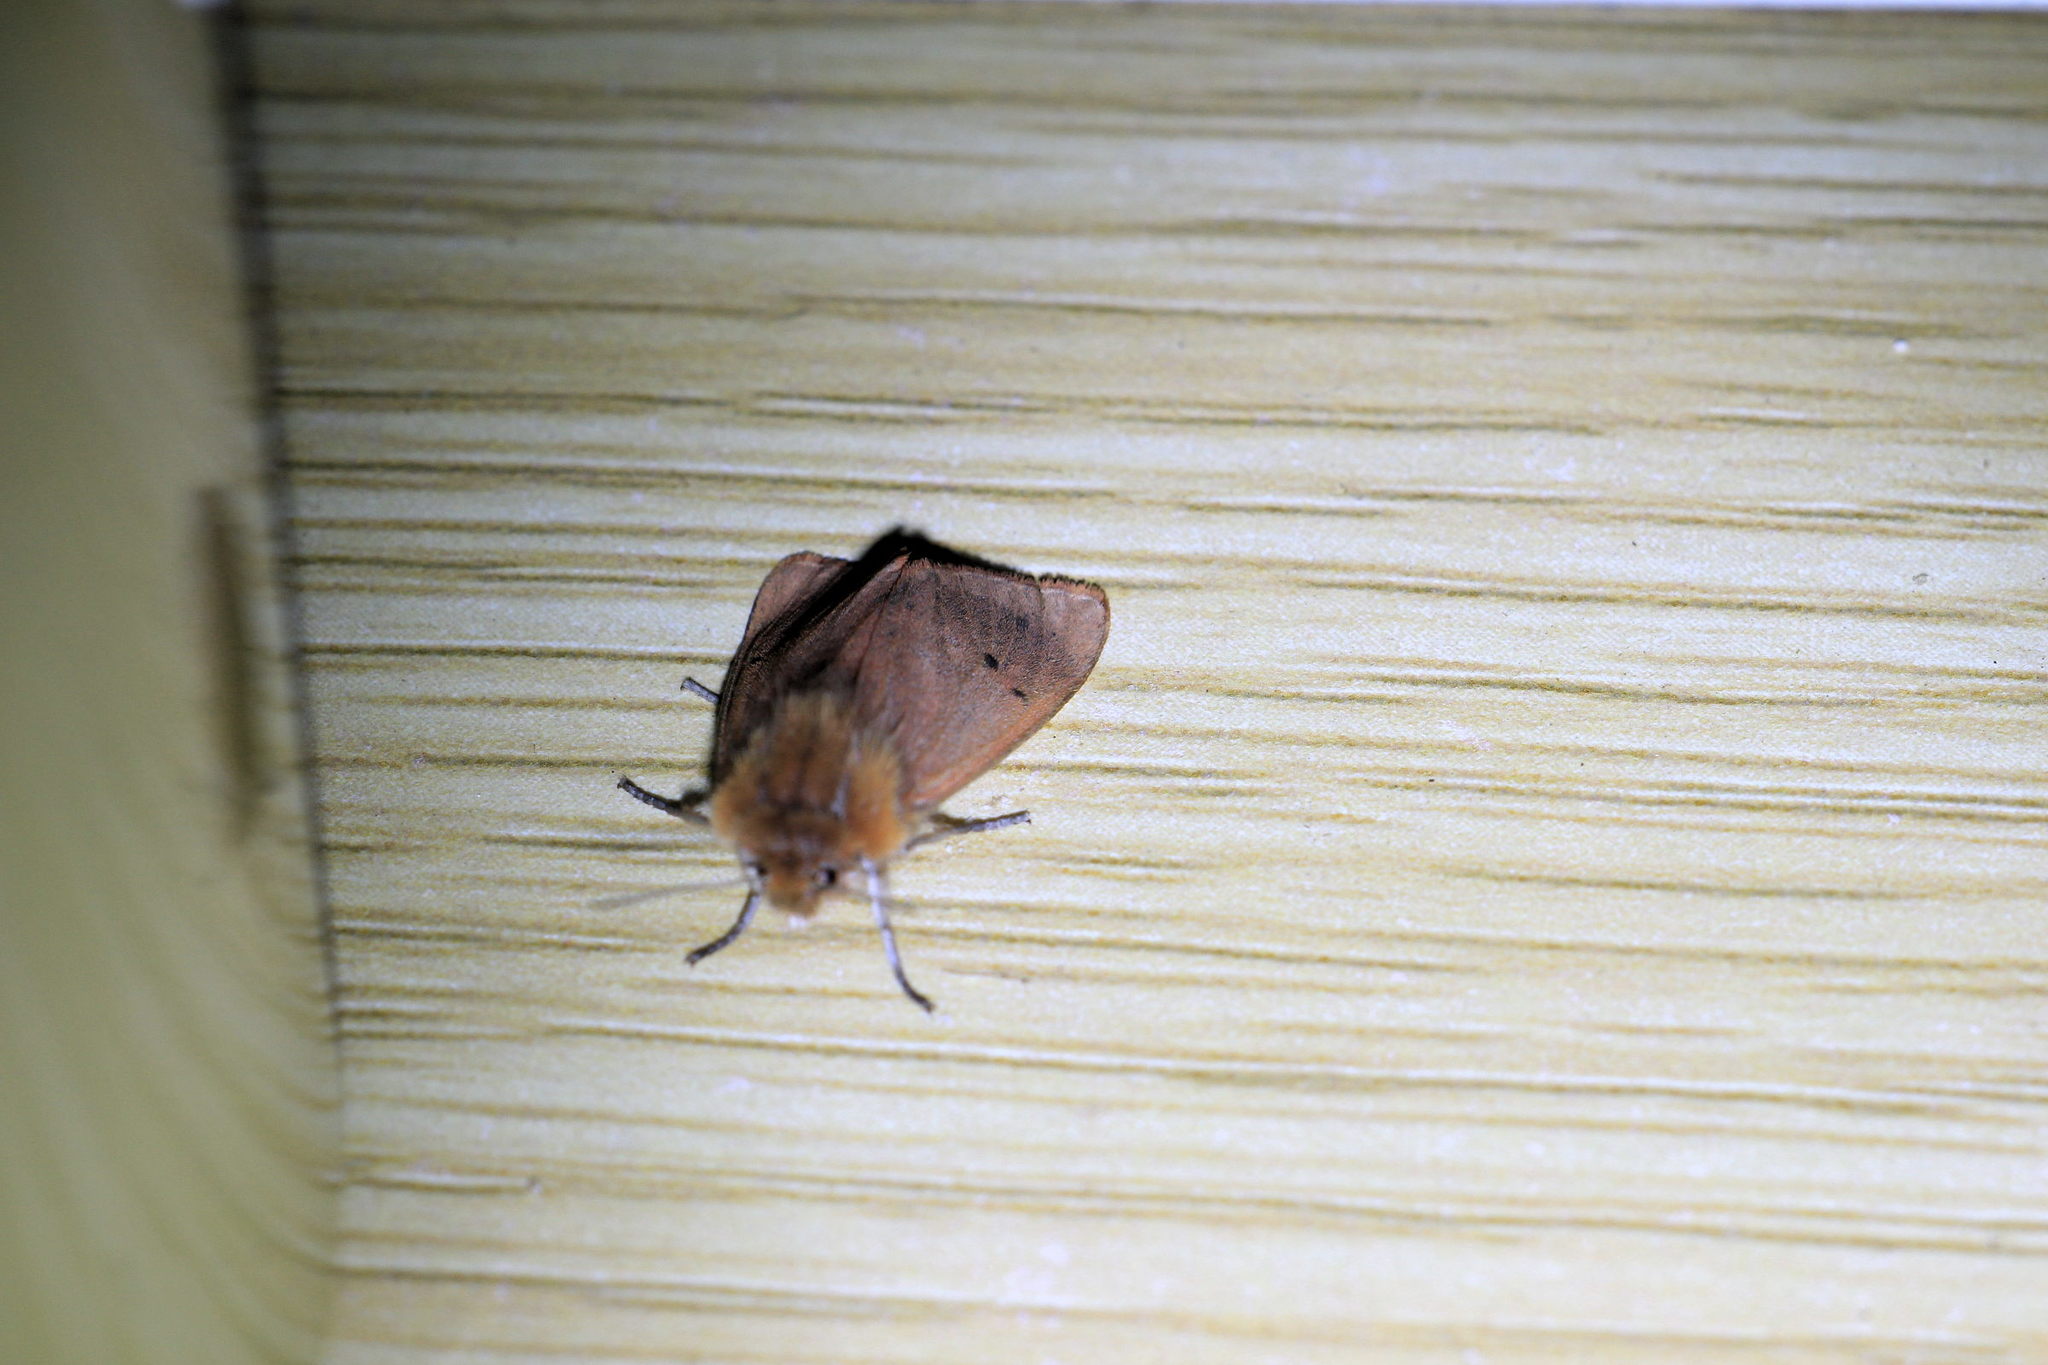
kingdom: Animalia
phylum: Arthropoda
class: Insecta
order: Lepidoptera
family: Erebidae
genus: Phragmatobia
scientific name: Phragmatobia fuliginosa
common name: Ruby tiger
